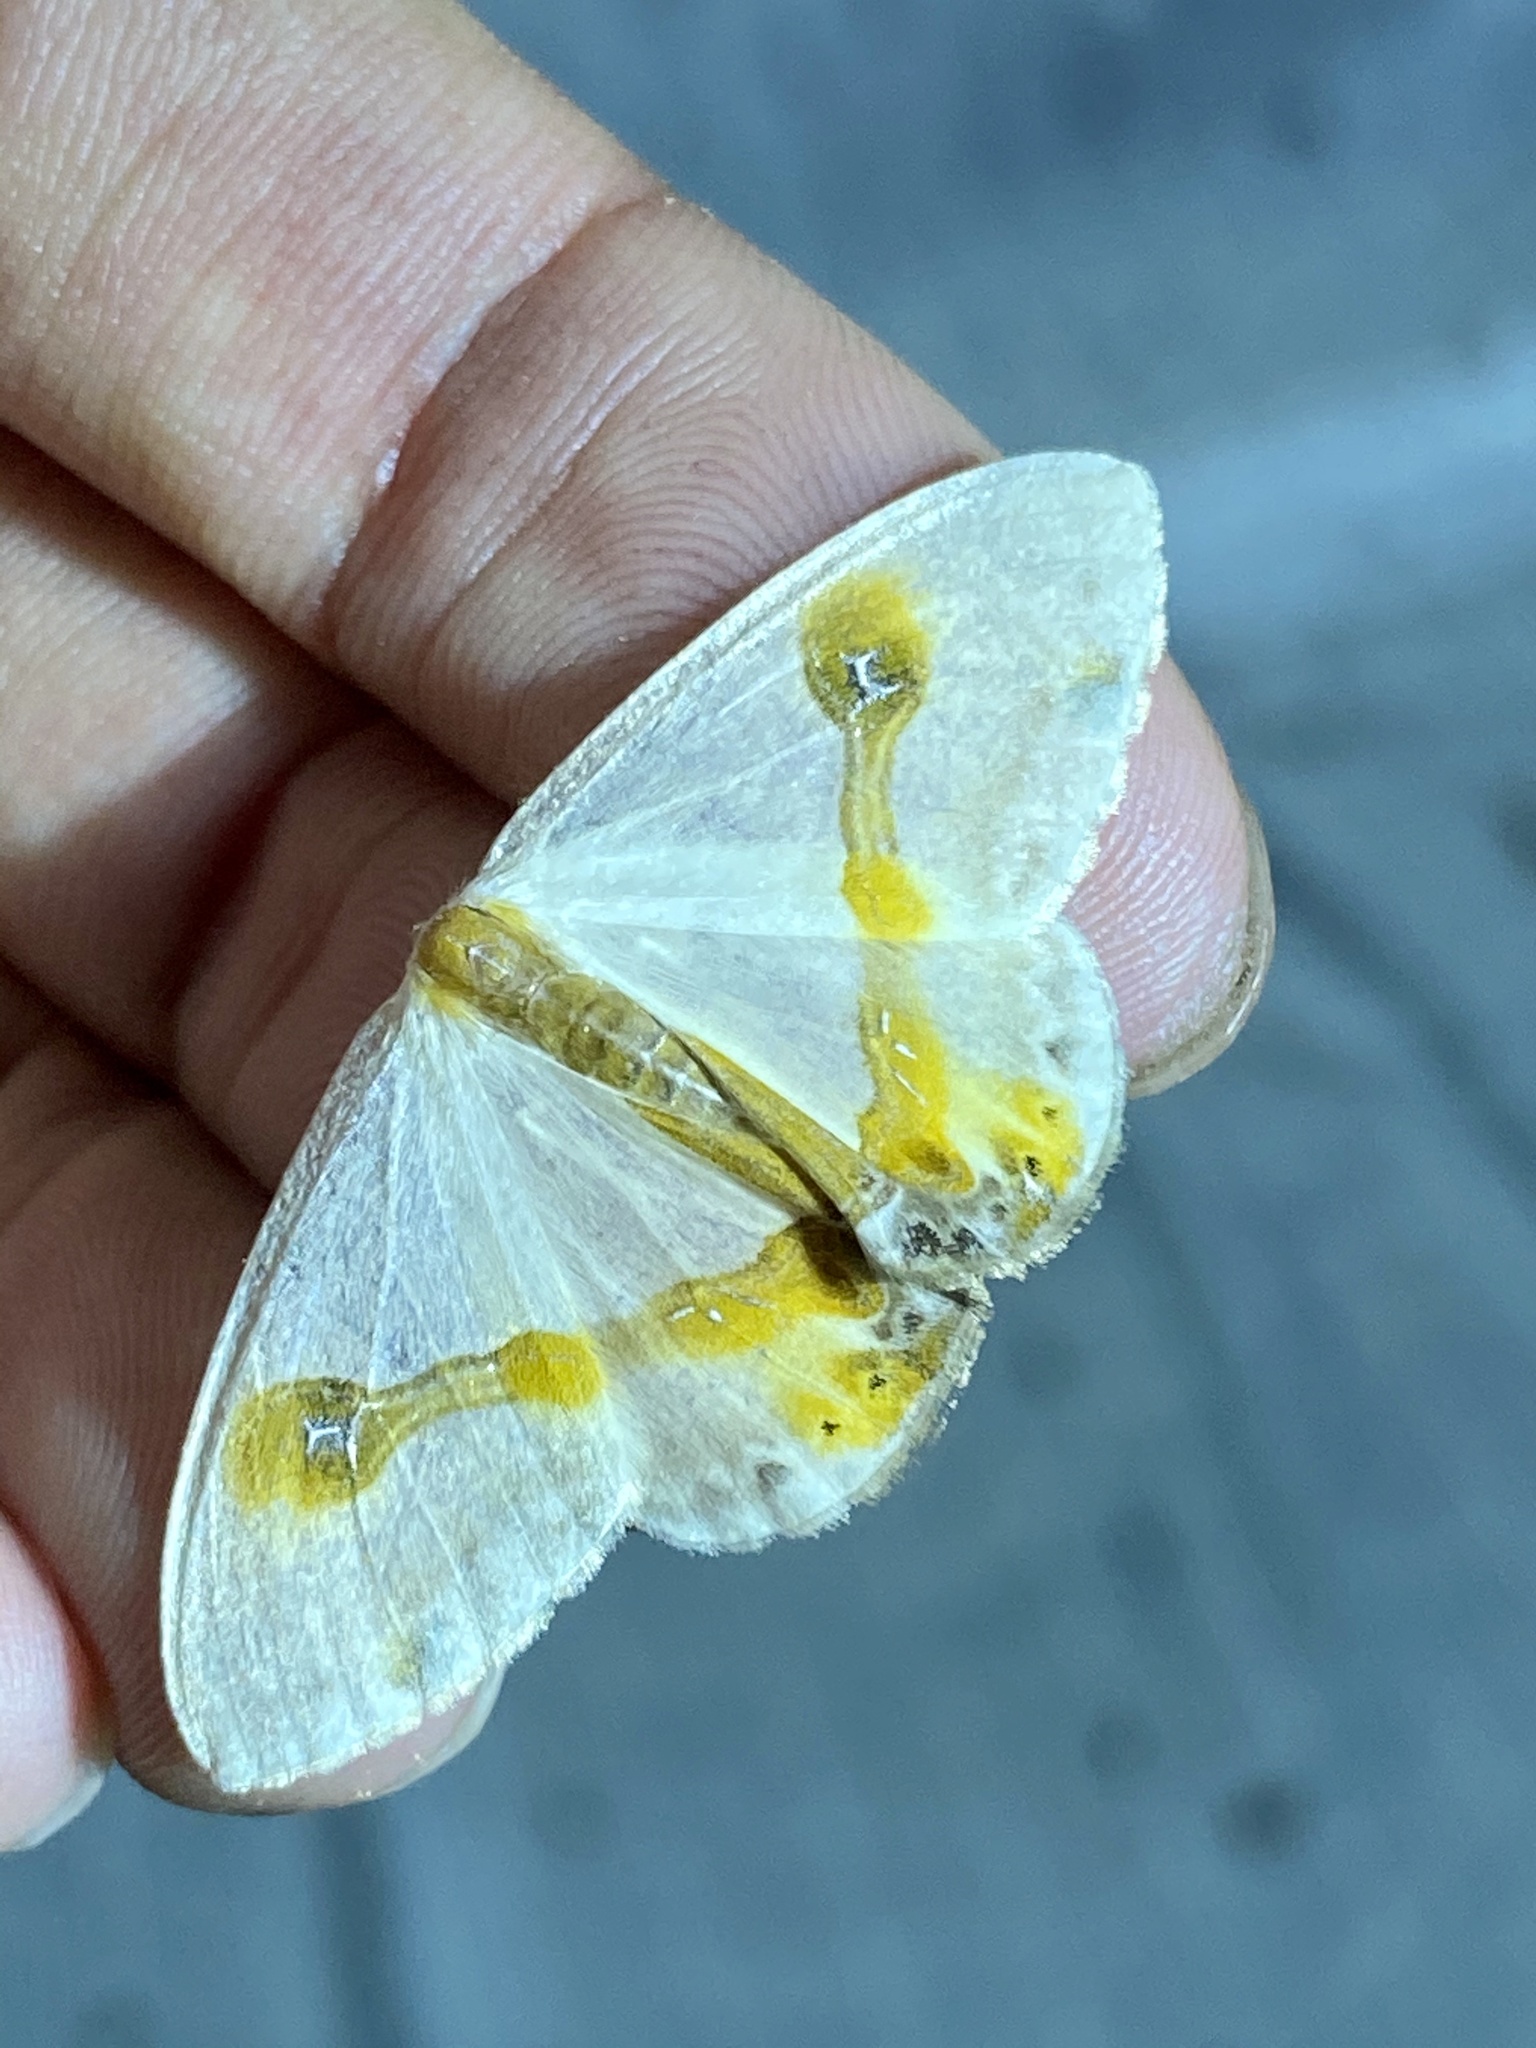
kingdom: Animalia
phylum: Arthropoda
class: Insecta
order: Lepidoptera
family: Drepanidae
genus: Macrocilix
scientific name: Macrocilix mysticata
